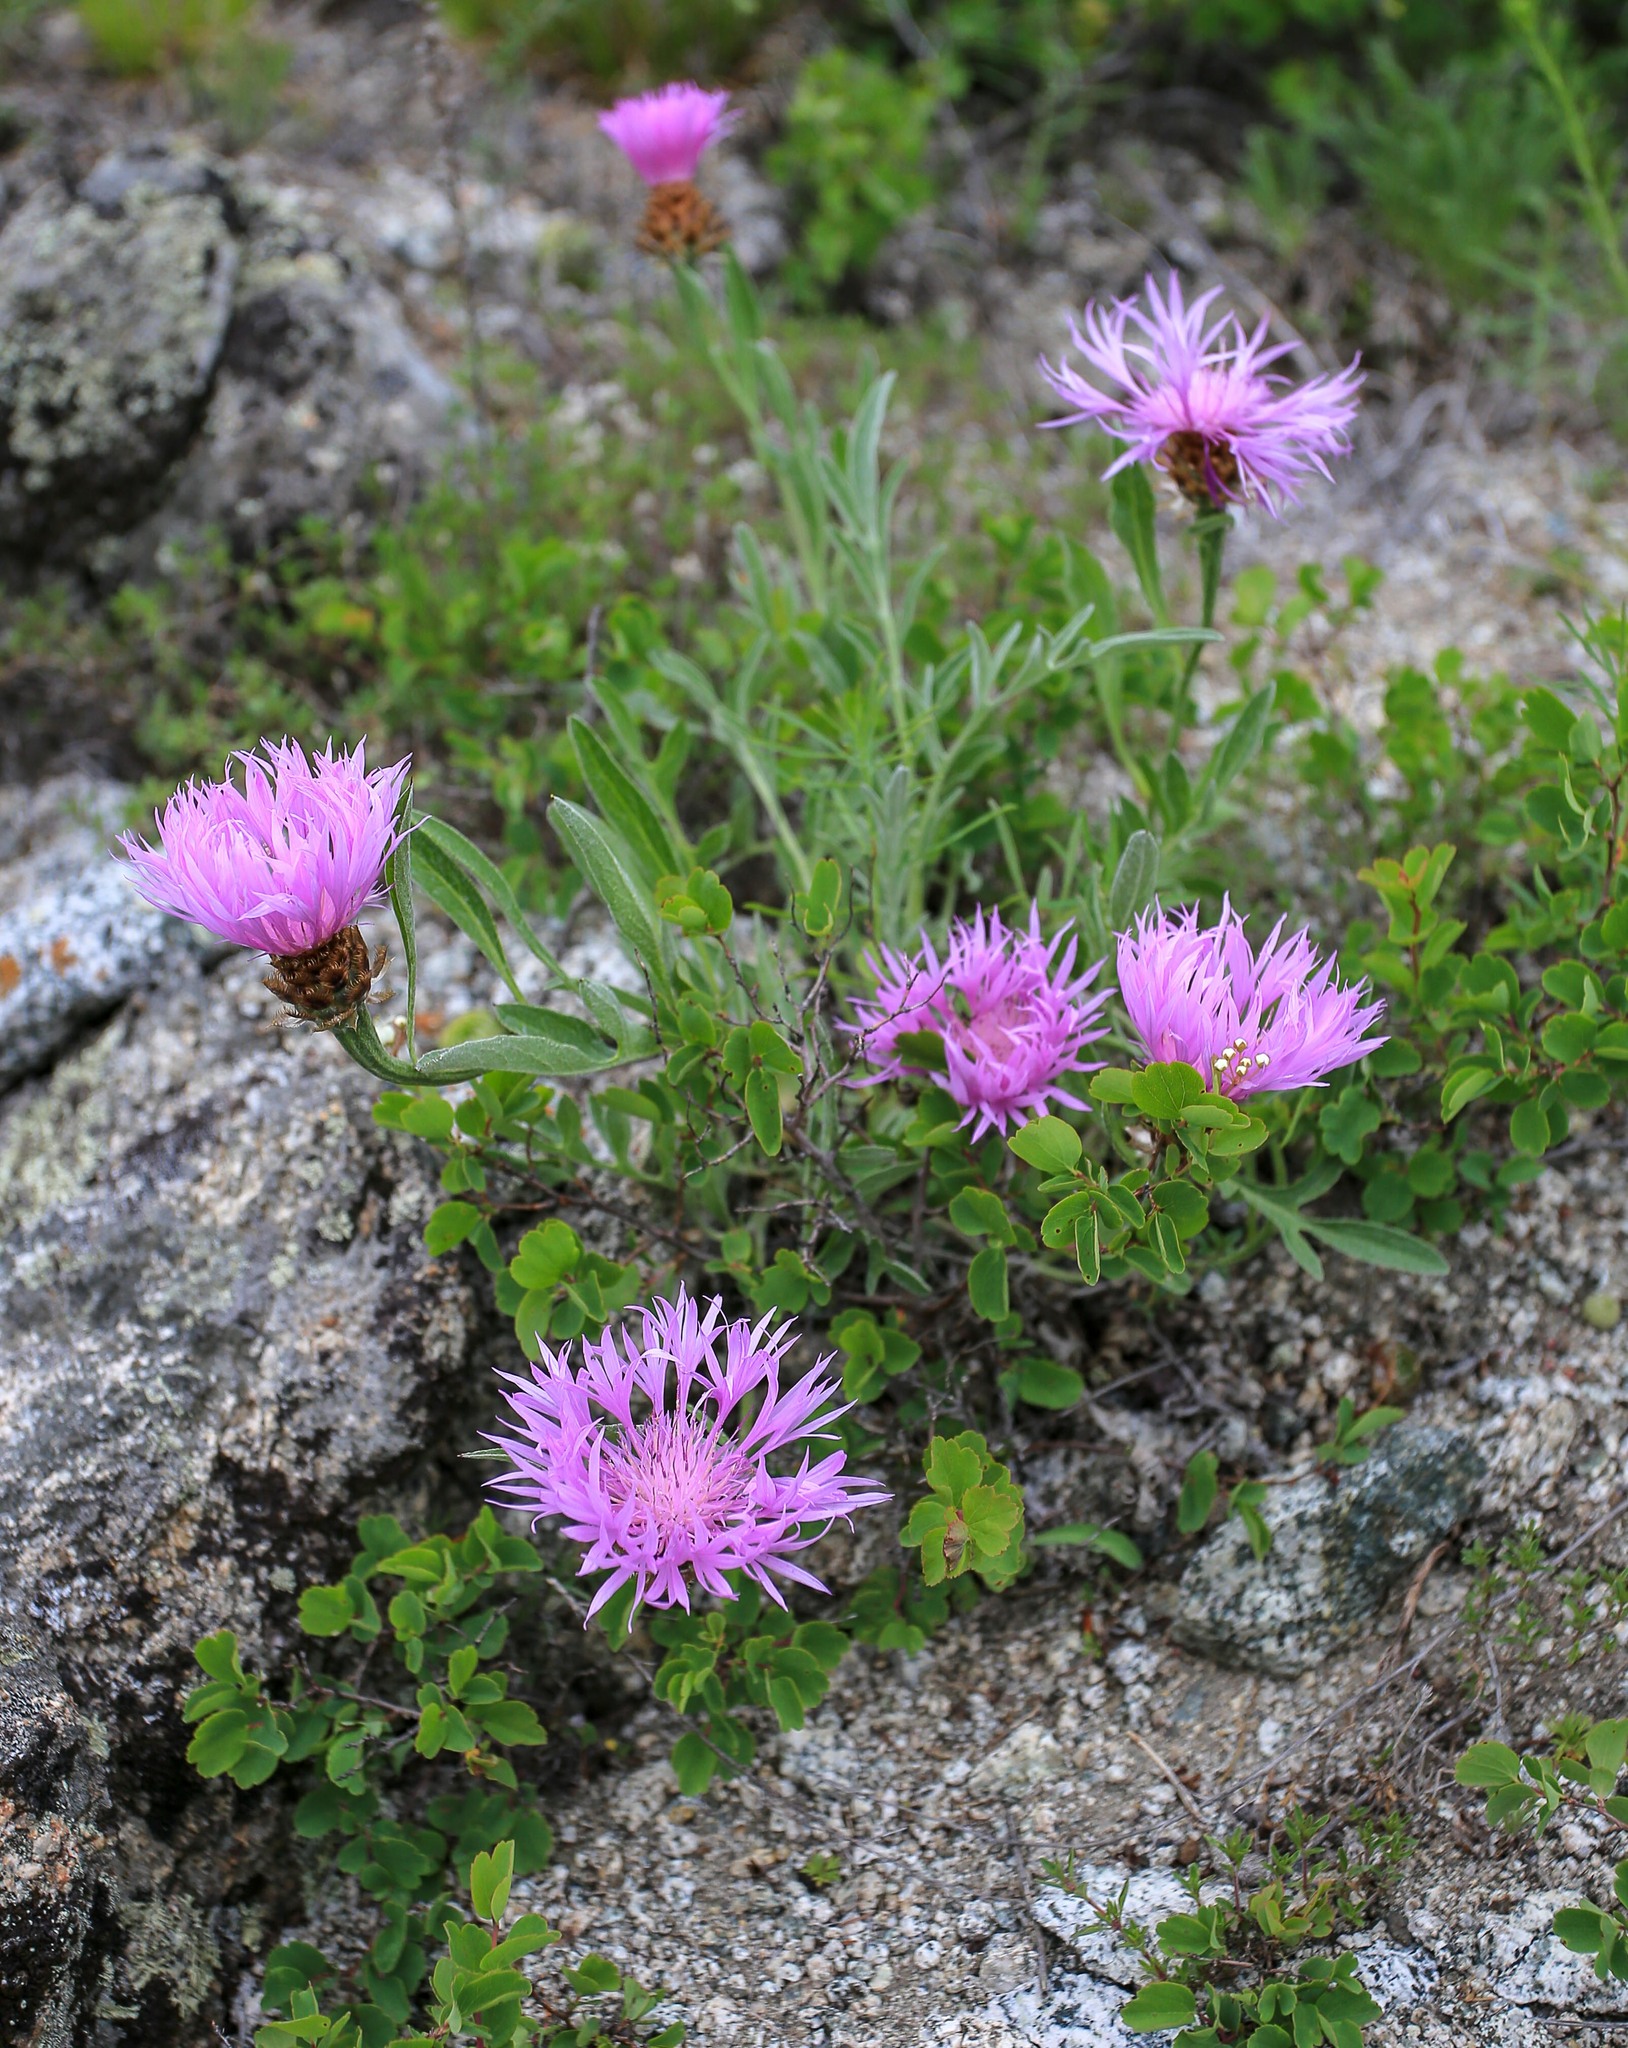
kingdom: Plantae
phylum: Tracheophyta
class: Magnoliopsida
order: Asterales
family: Asteraceae
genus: Psephellus
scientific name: Psephellus sibiricus
